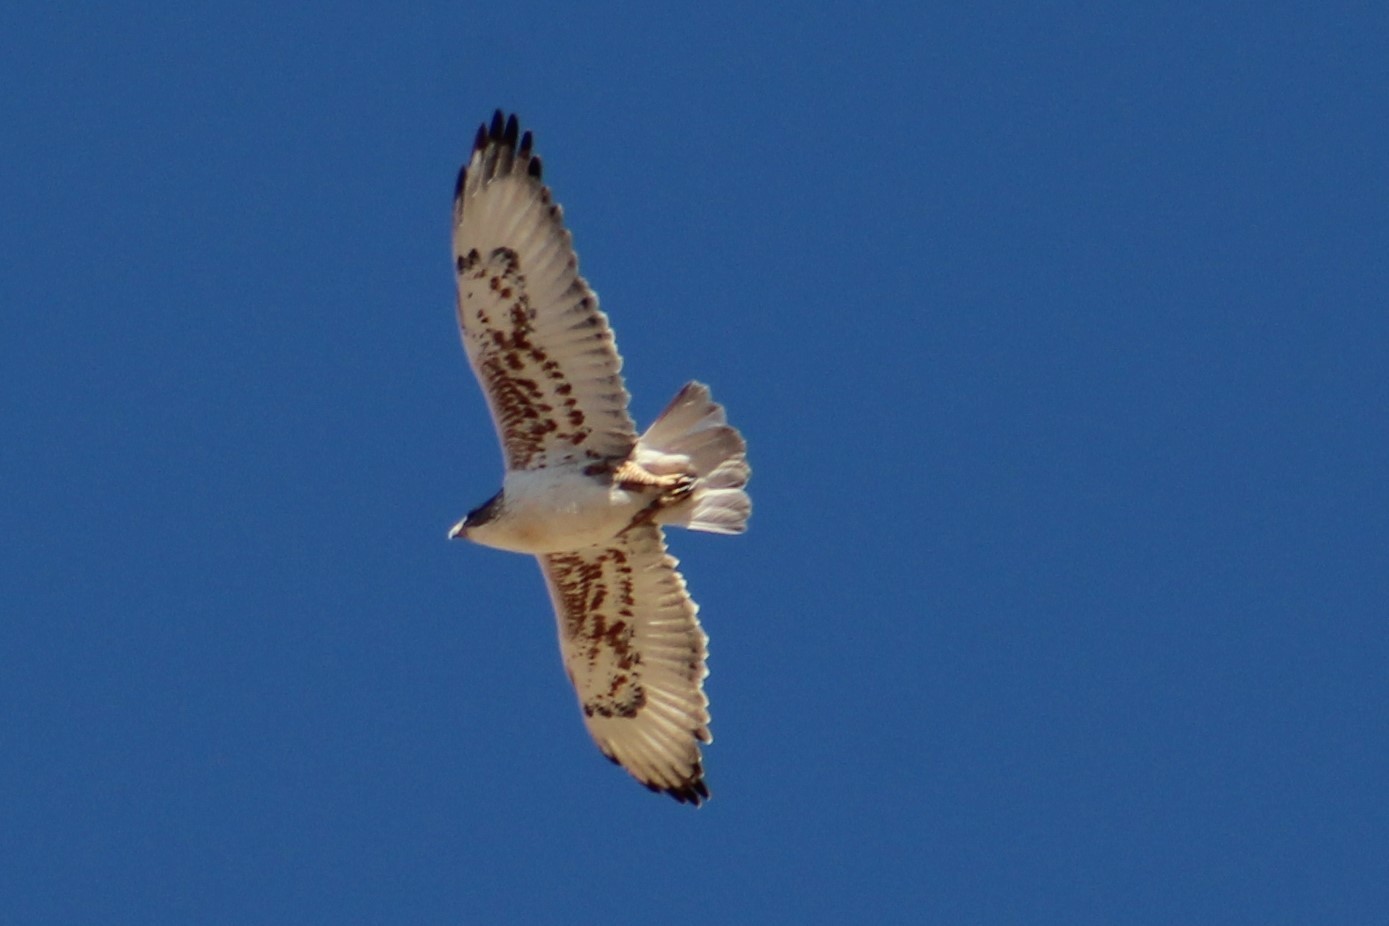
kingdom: Animalia
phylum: Chordata
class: Aves
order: Accipitriformes
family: Accipitridae
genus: Buteo
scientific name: Buteo regalis
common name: Ferruginous hawk
